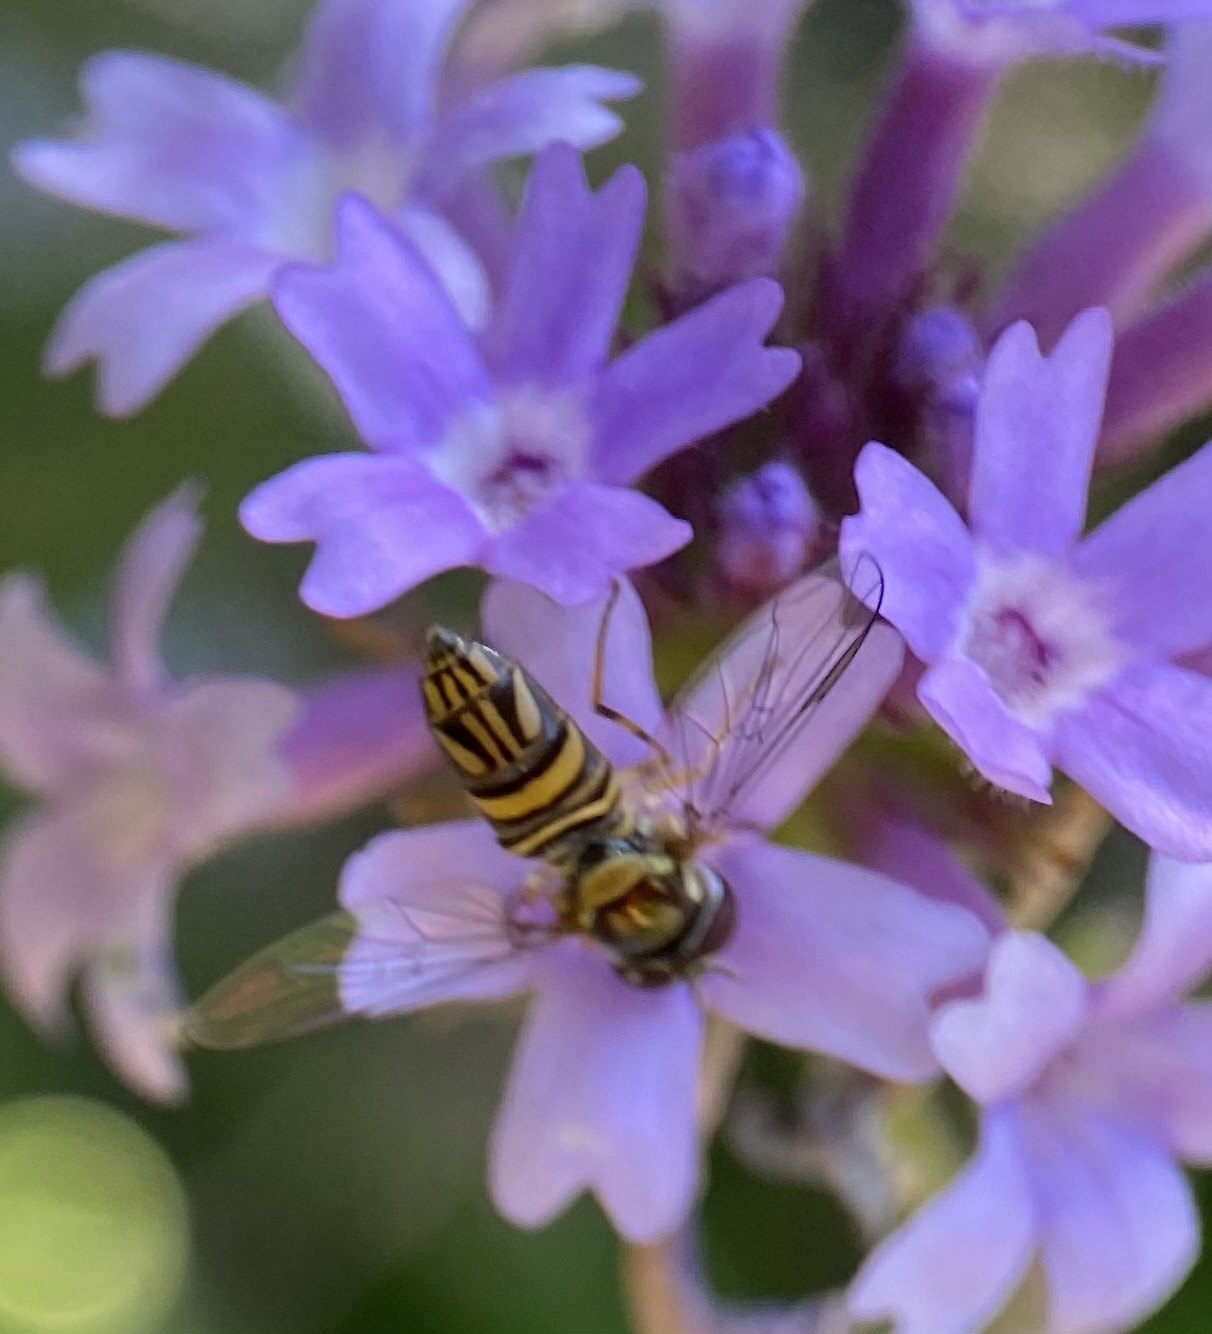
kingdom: Animalia
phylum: Arthropoda
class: Insecta
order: Diptera
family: Syrphidae
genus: Allograpta
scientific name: Allograpta obliqua
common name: Common oblique syrphid
